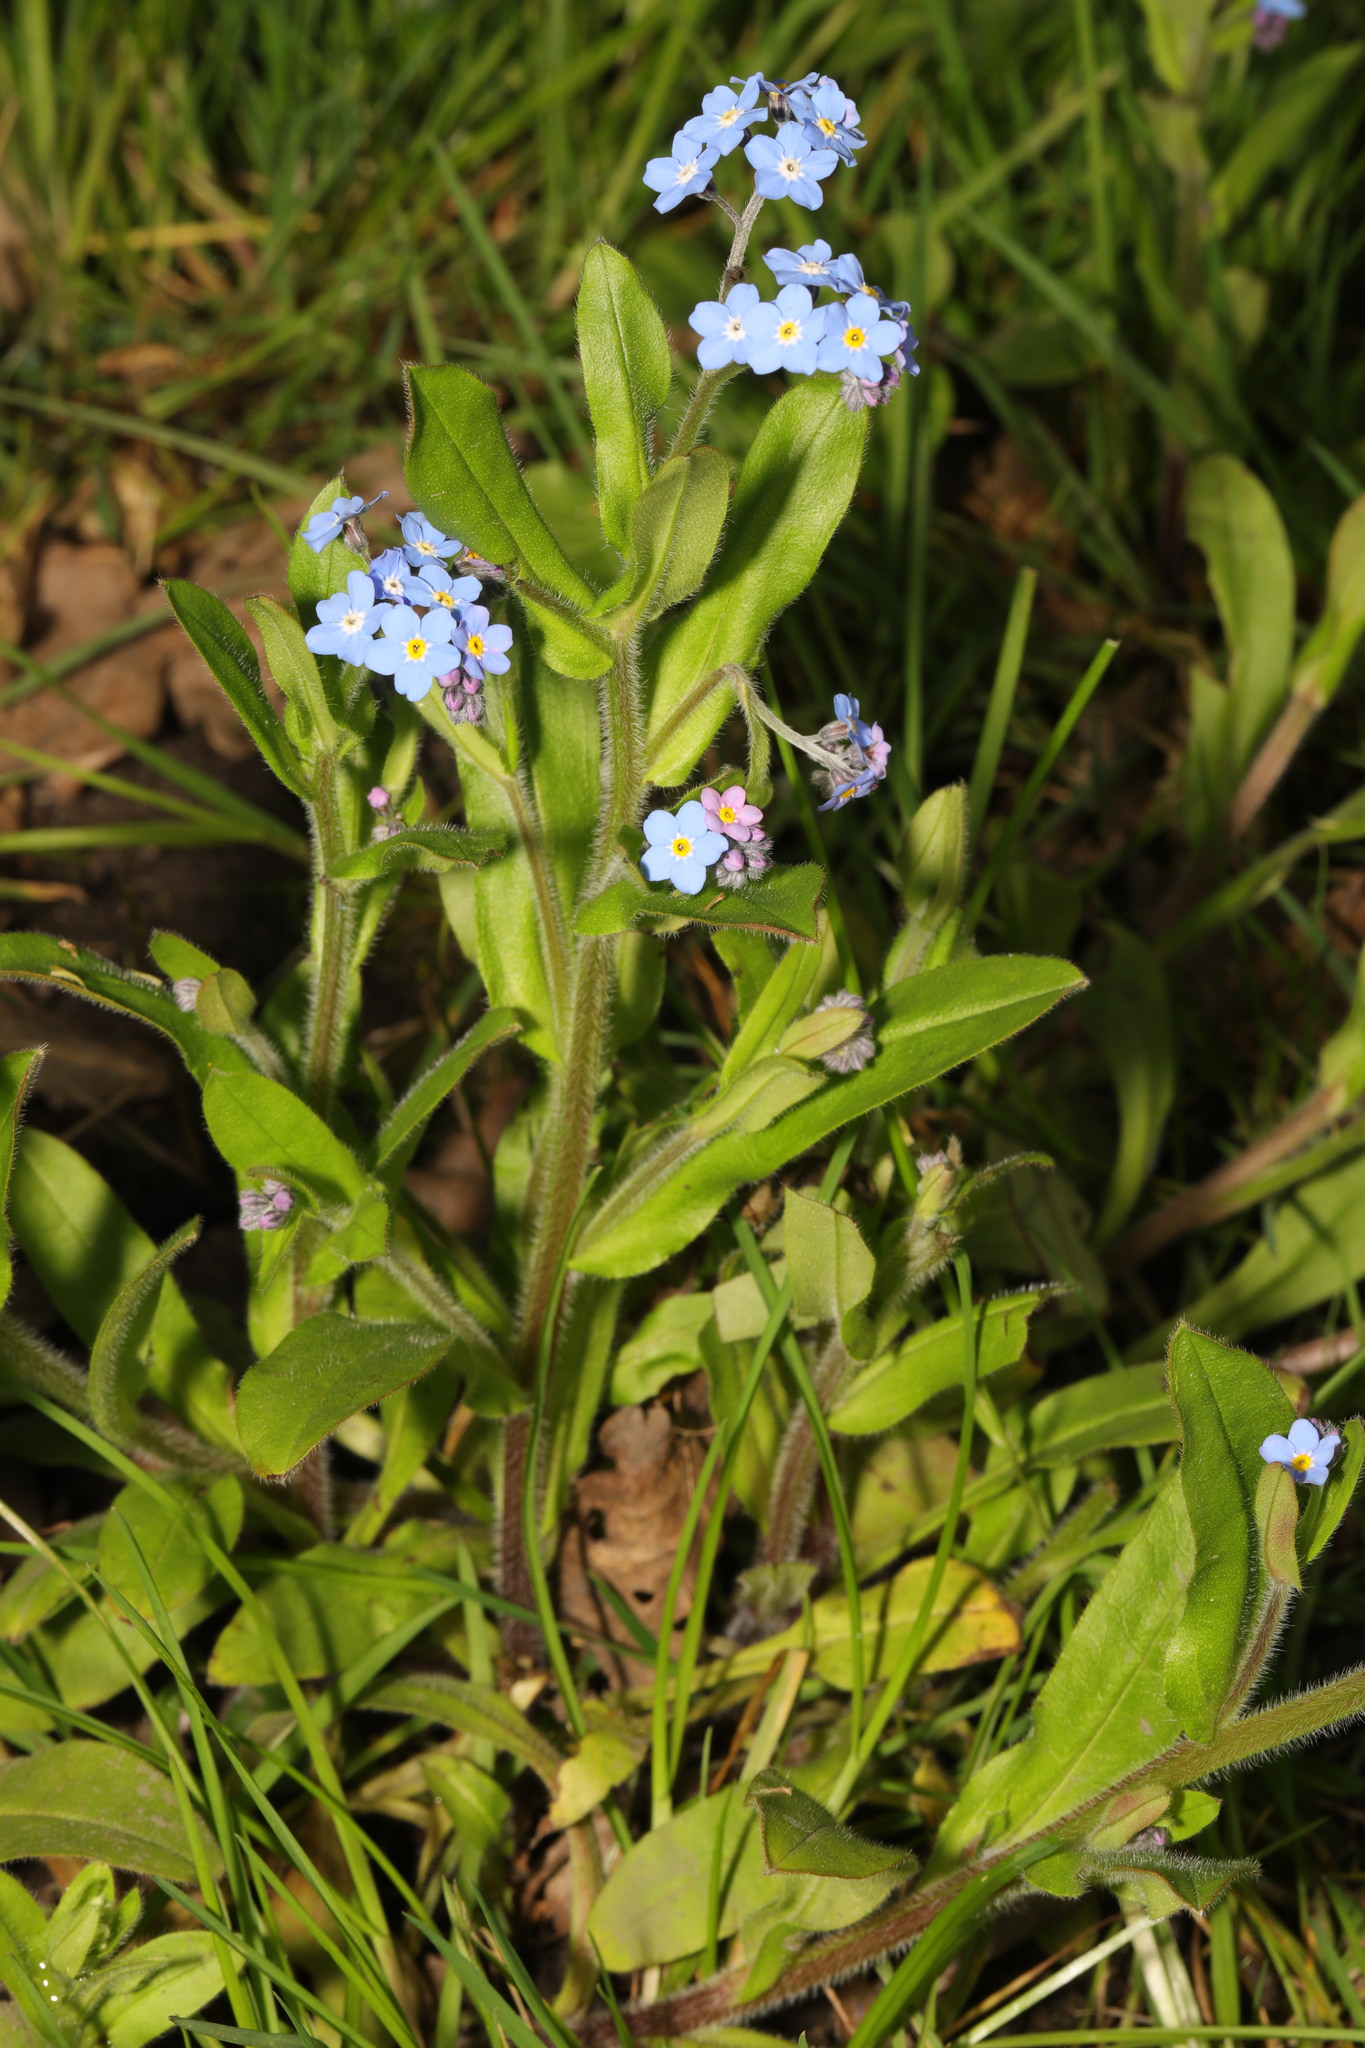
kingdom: Plantae
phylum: Tracheophyta
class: Magnoliopsida
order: Boraginales
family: Boraginaceae
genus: Myosotis
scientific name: Myosotis sylvatica
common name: Wood forget-me-not
